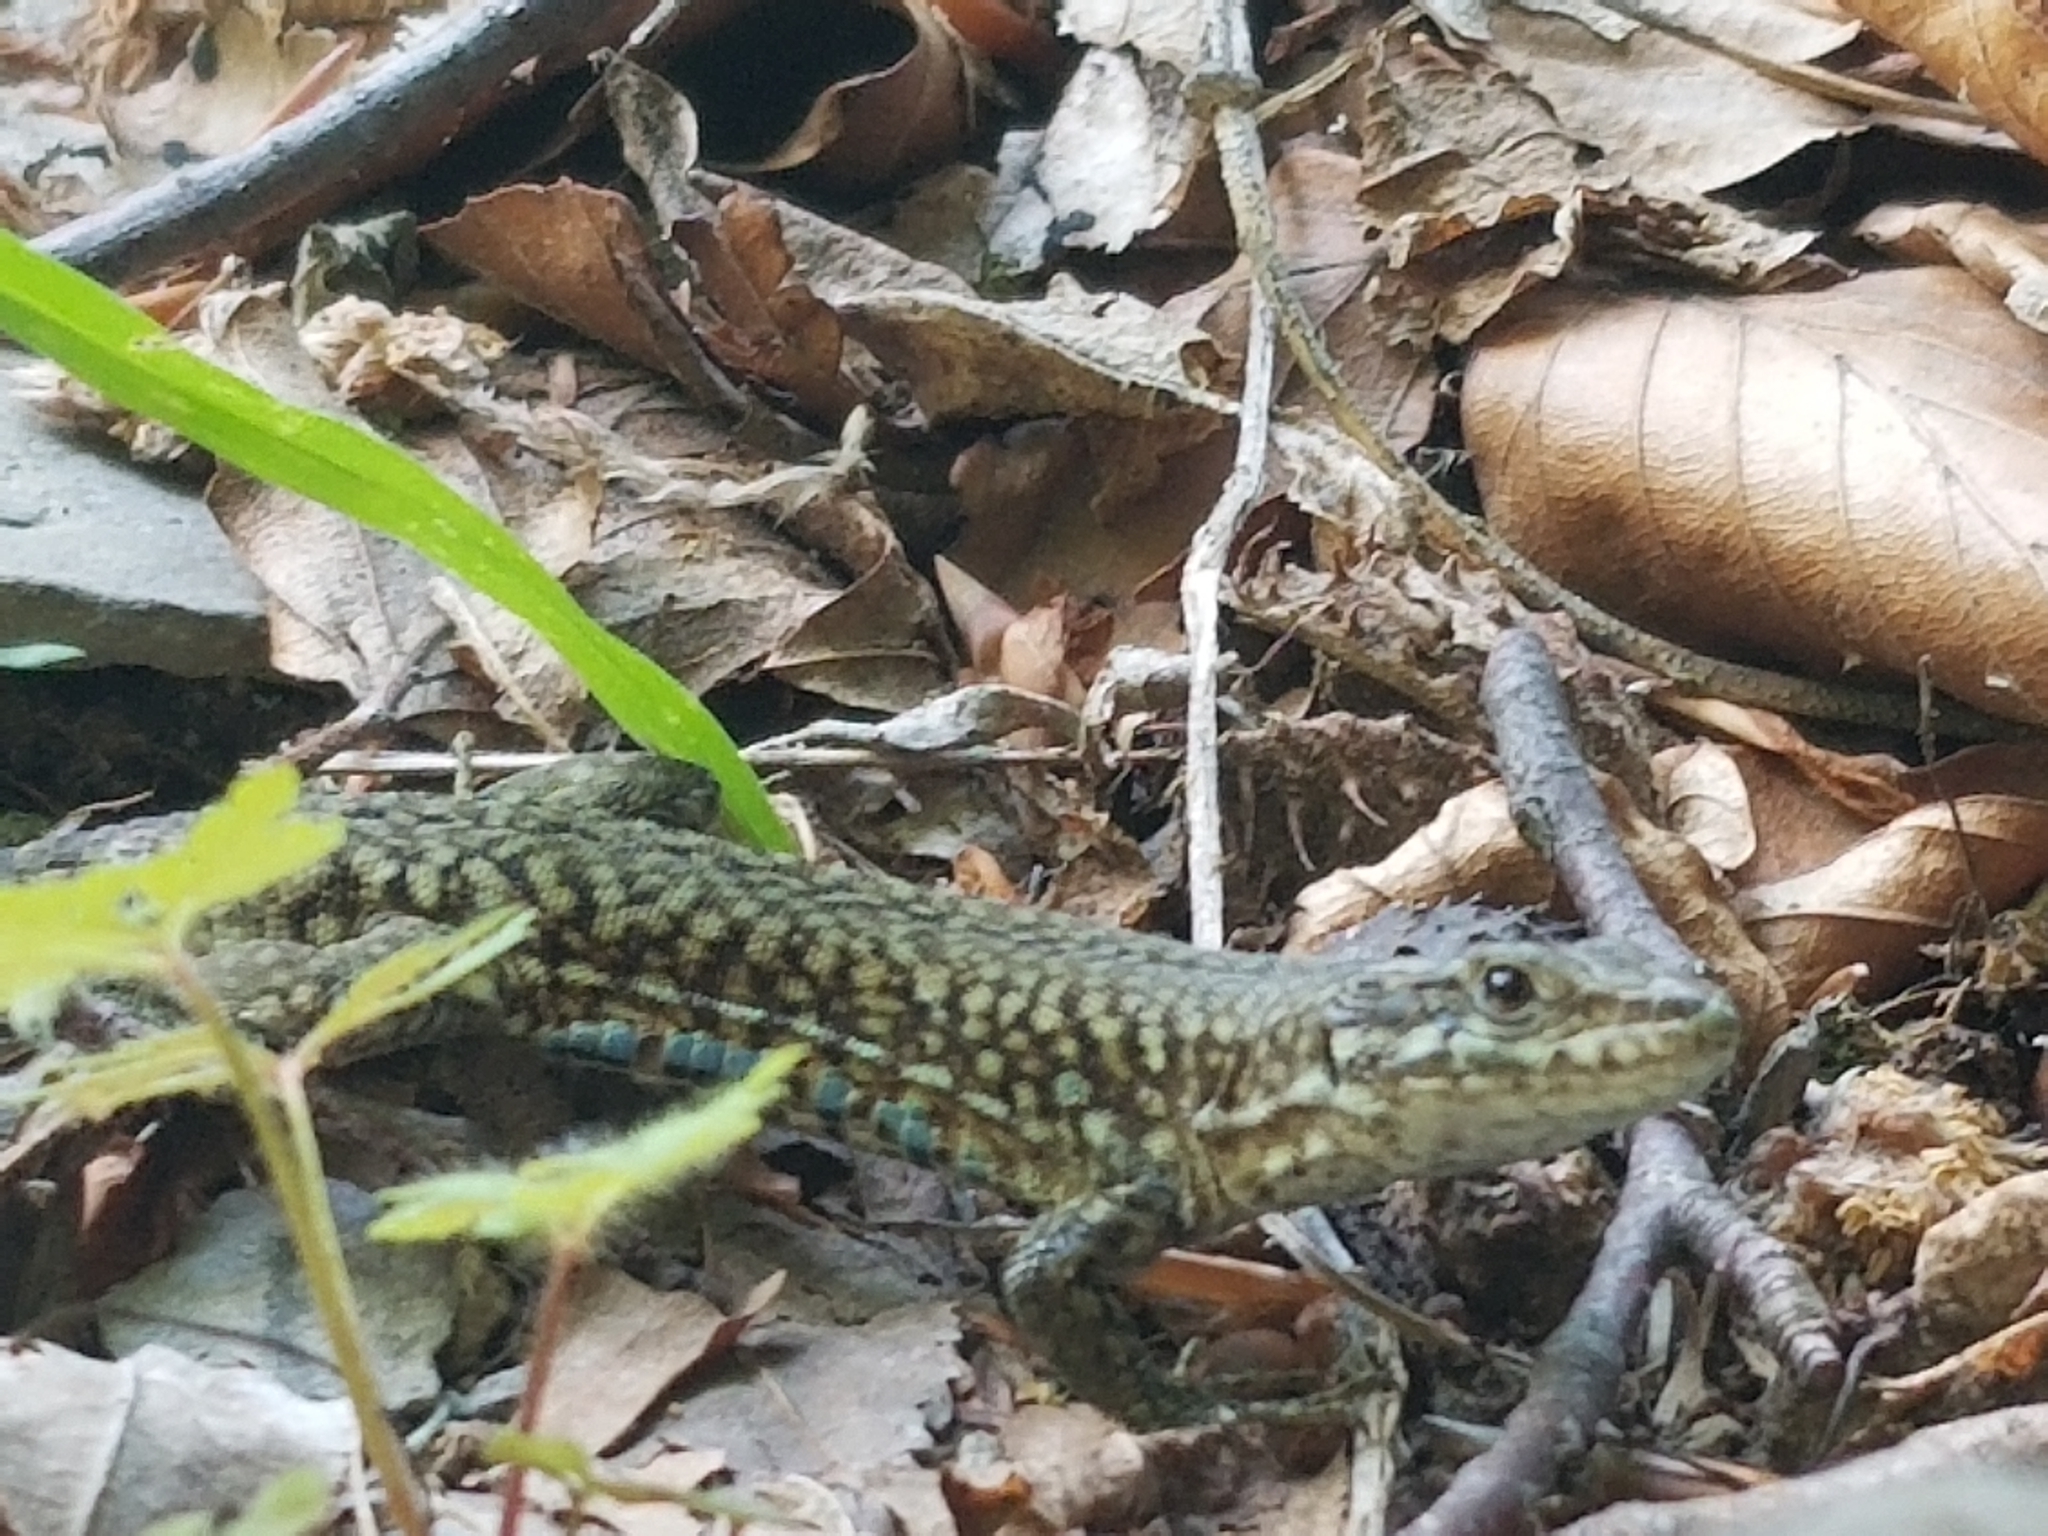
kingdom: Animalia
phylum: Chordata
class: Squamata
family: Lacertidae
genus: Podarcis
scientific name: Podarcis muralis
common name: Common wall lizard
